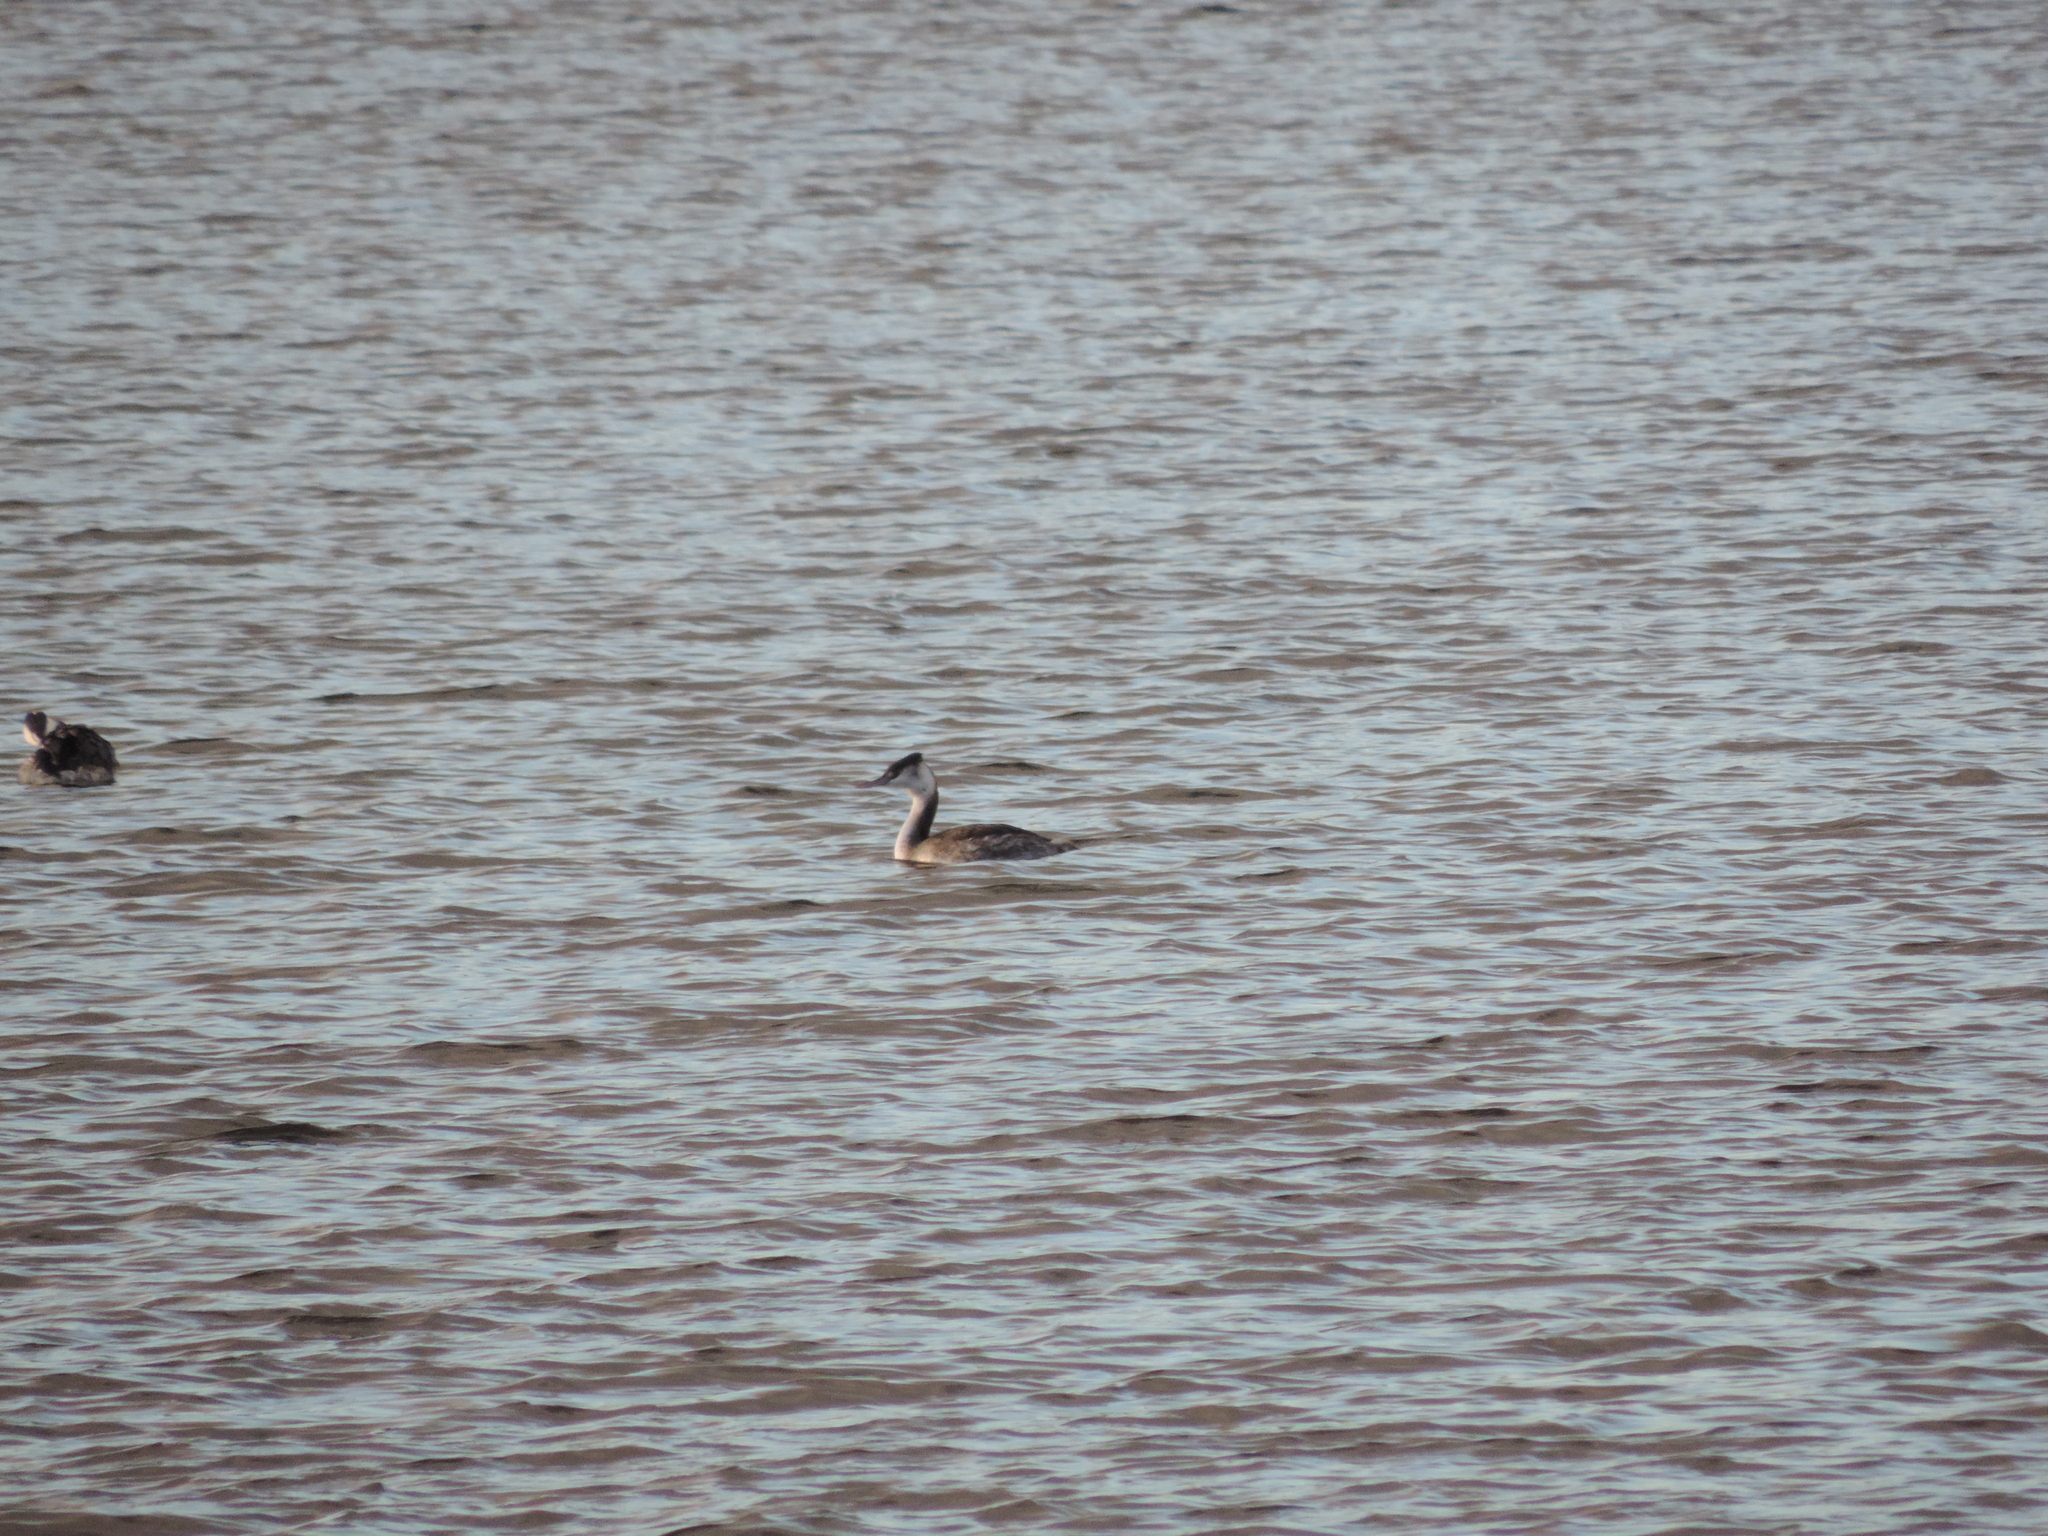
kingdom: Animalia
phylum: Chordata
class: Aves
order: Podicipediformes
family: Podicipedidae
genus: Podiceps
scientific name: Podiceps cristatus
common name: Great crested grebe
